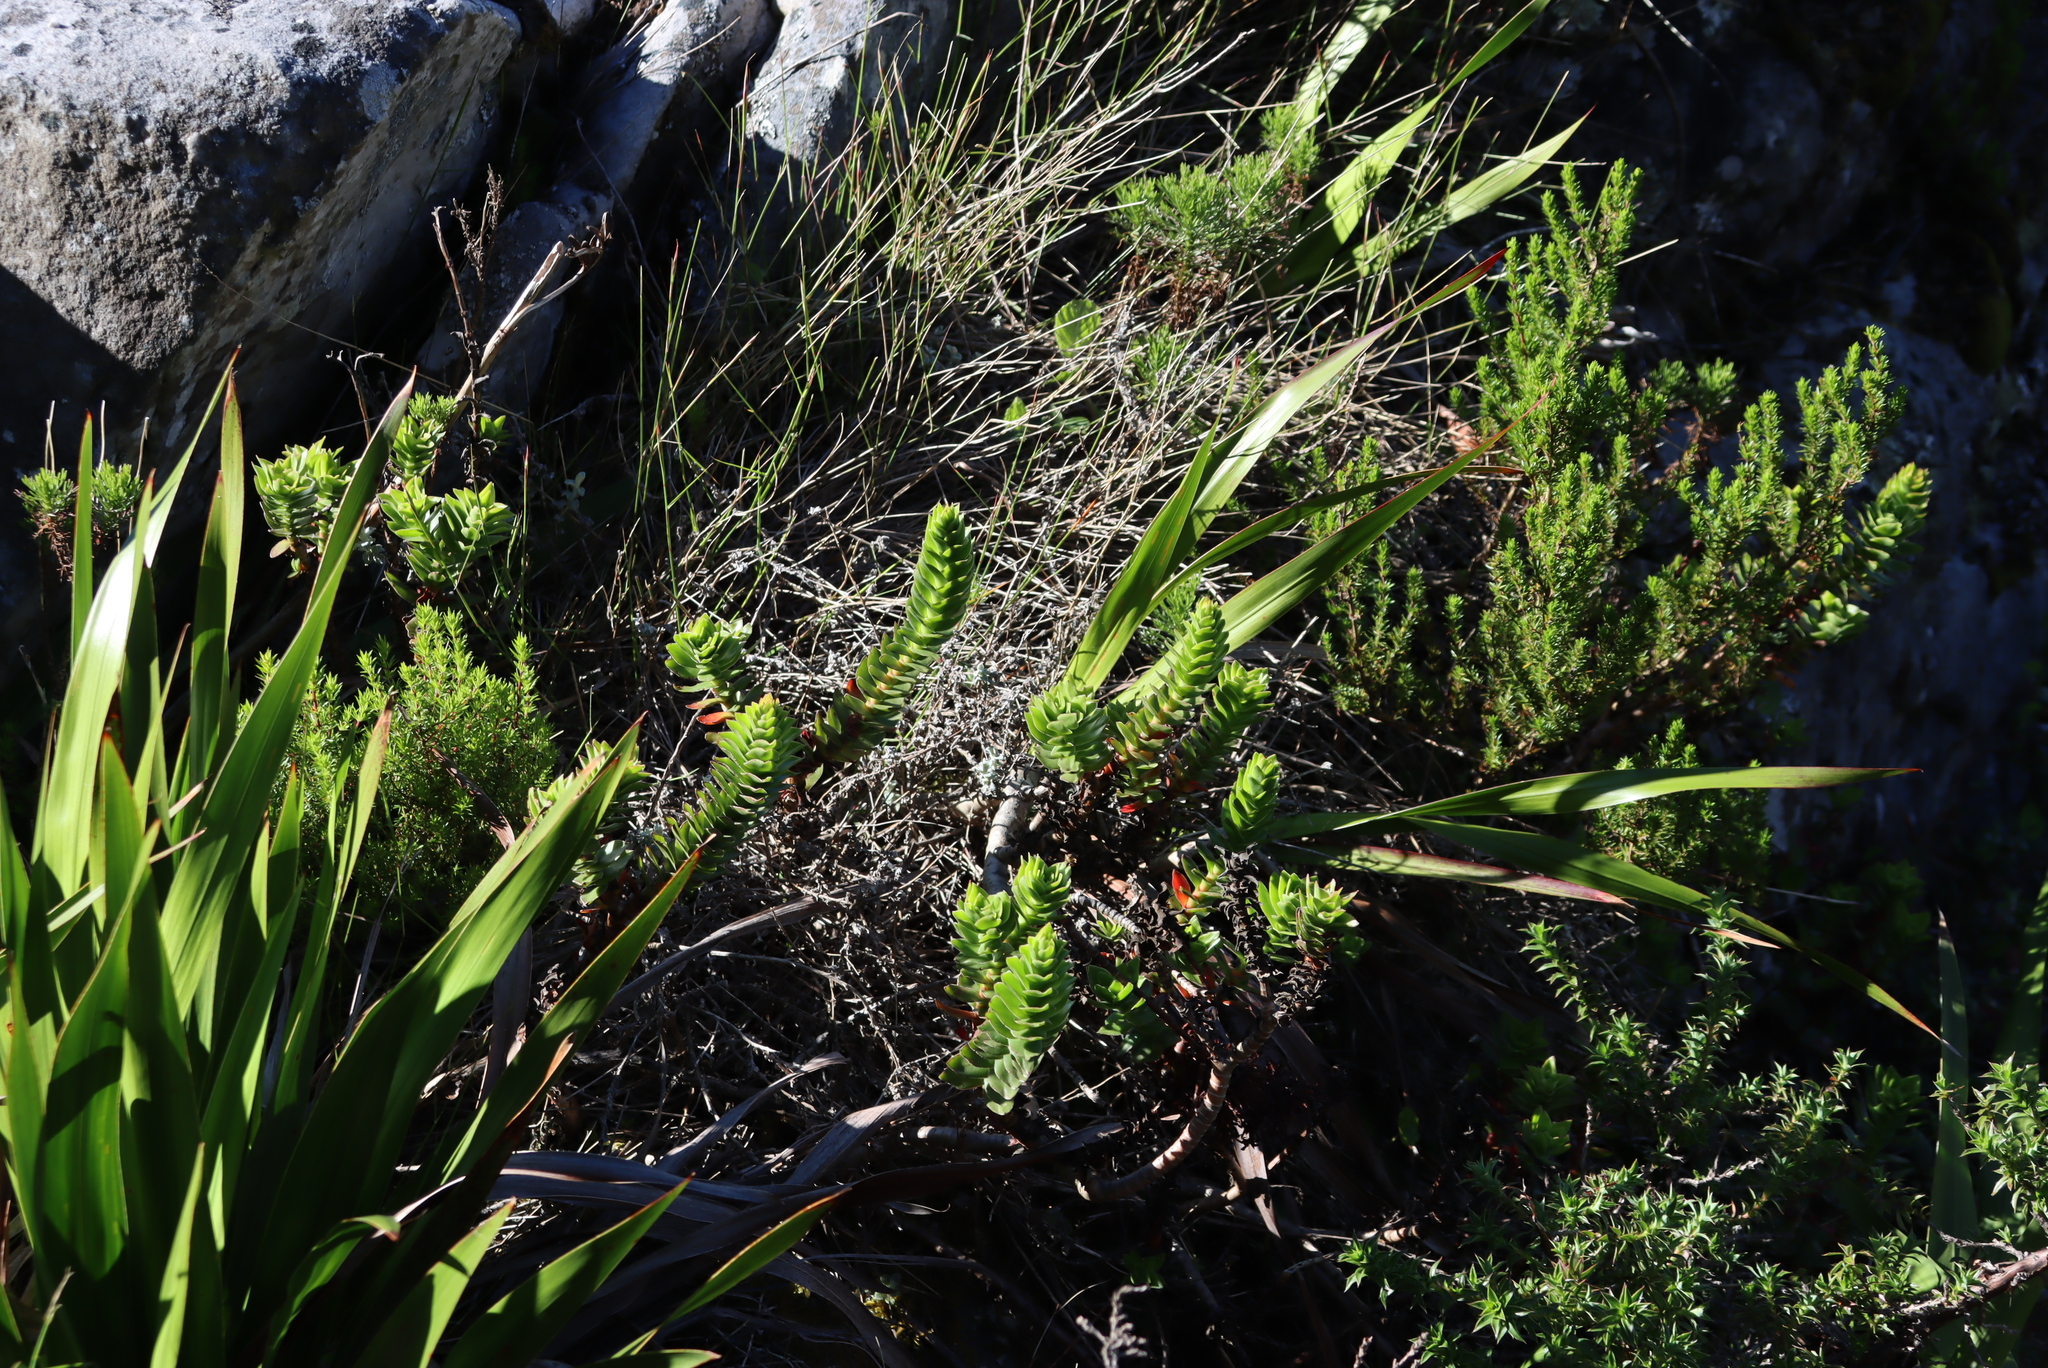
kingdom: Plantae
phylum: Tracheophyta
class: Magnoliopsida
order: Saxifragales
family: Crassulaceae
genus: Crassula
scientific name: Crassula coccinea
